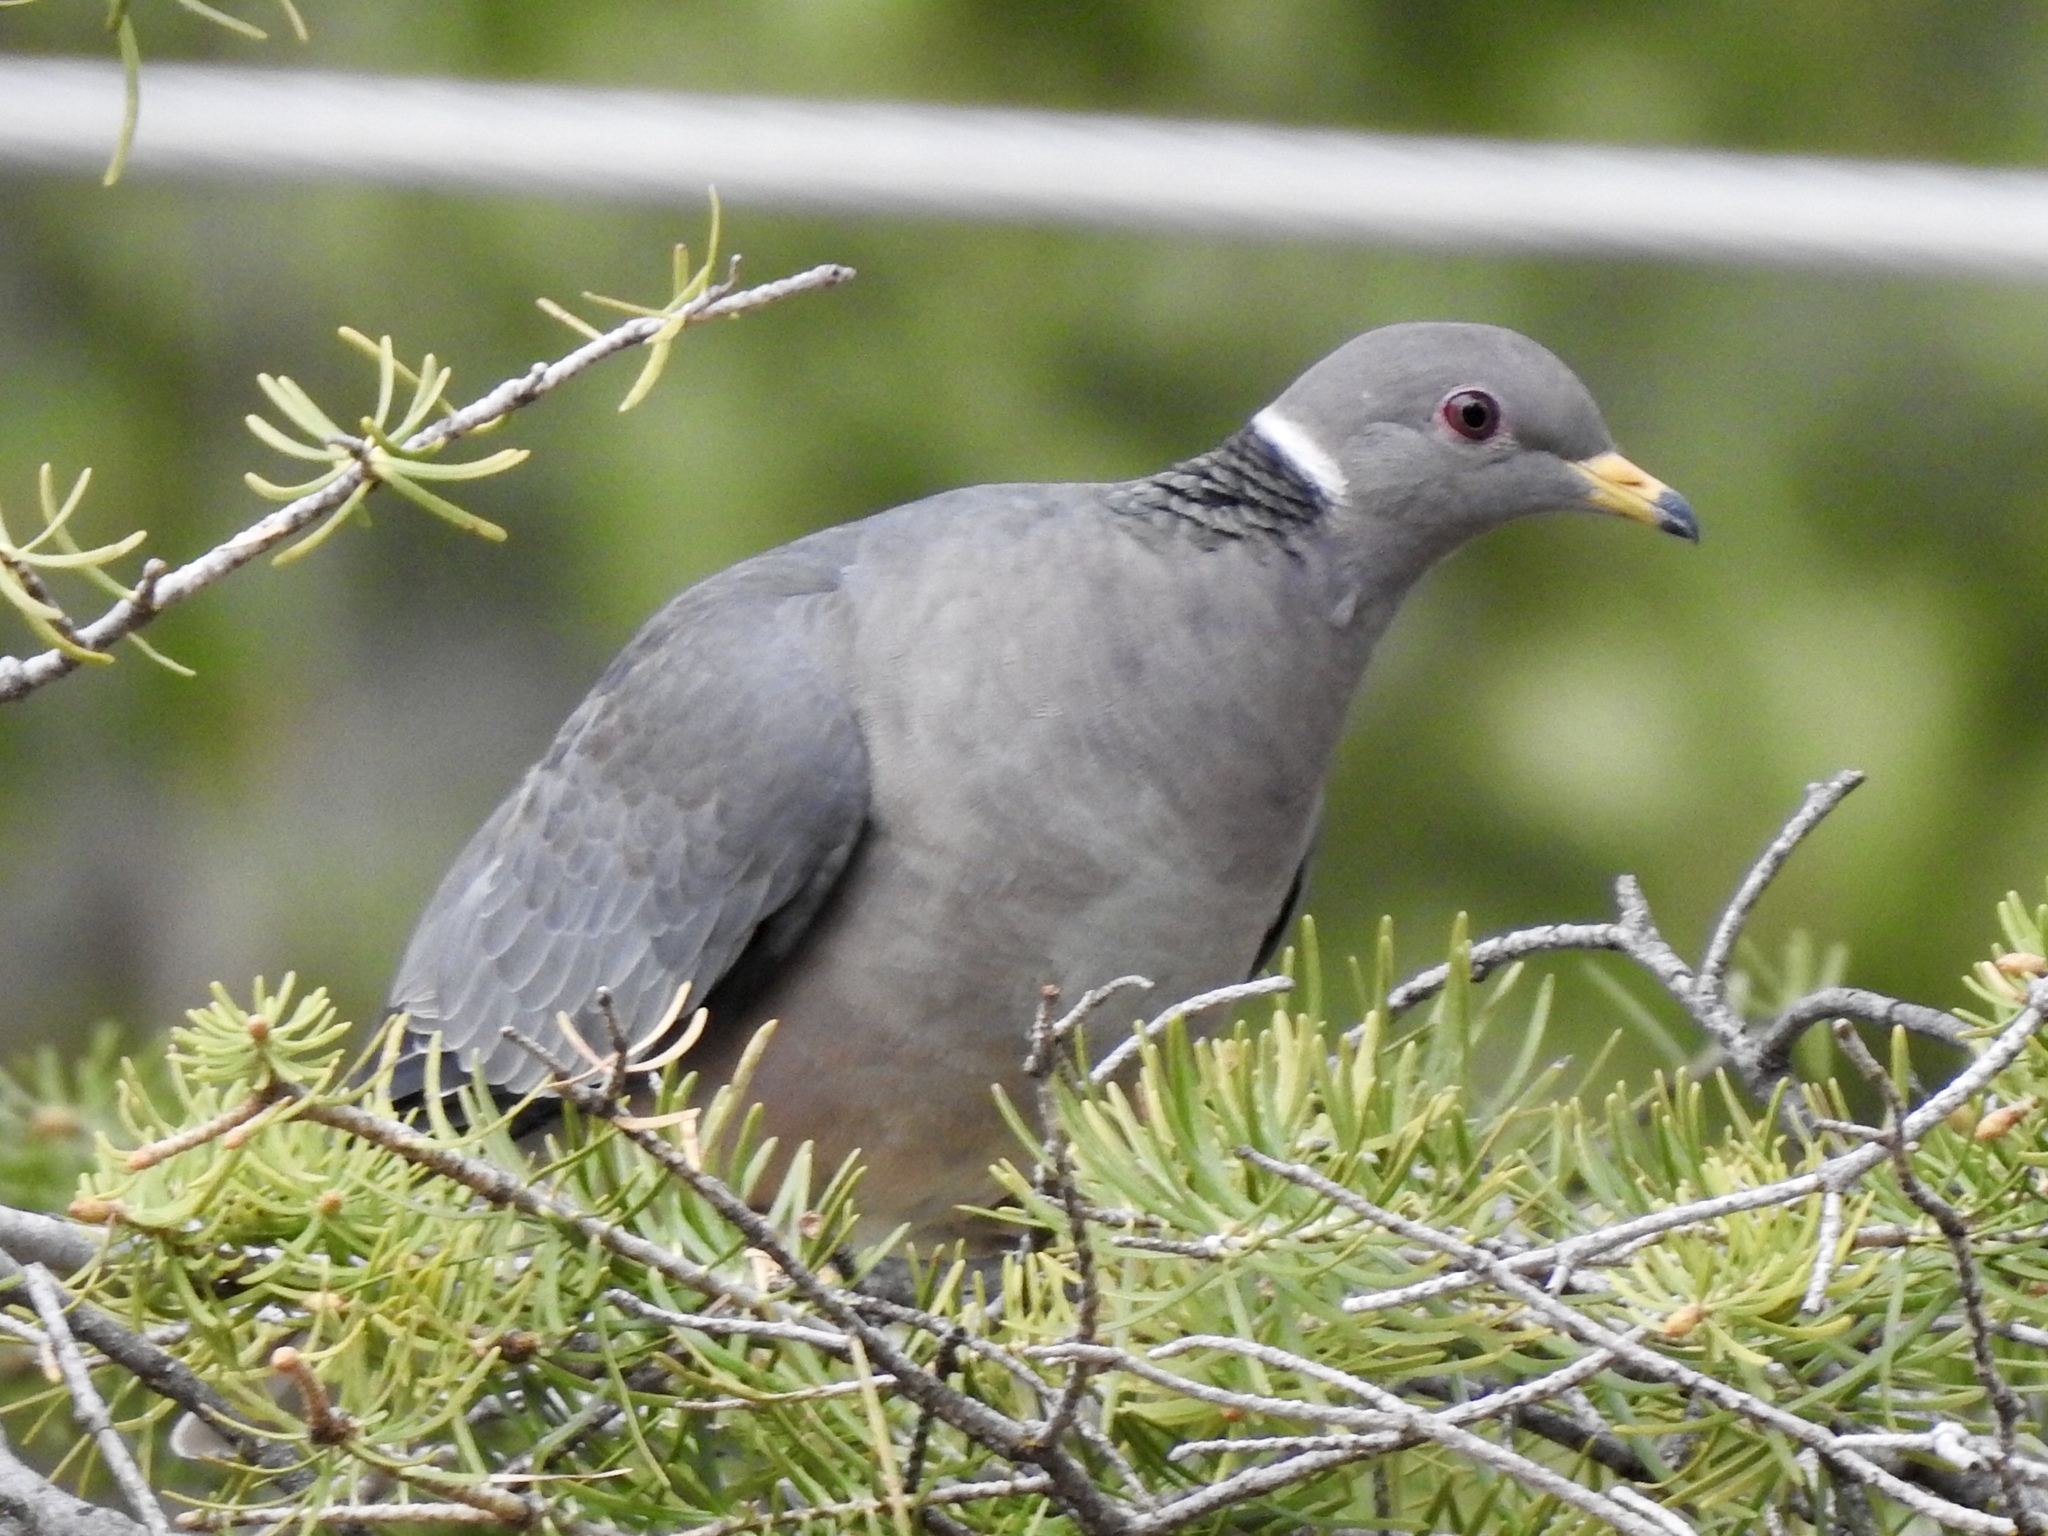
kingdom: Animalia
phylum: Chordata
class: Aves
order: Columbiformes
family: Columbidae
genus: Patagioenas
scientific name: Patagioenas fasciata
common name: Band-tailed pigeon
